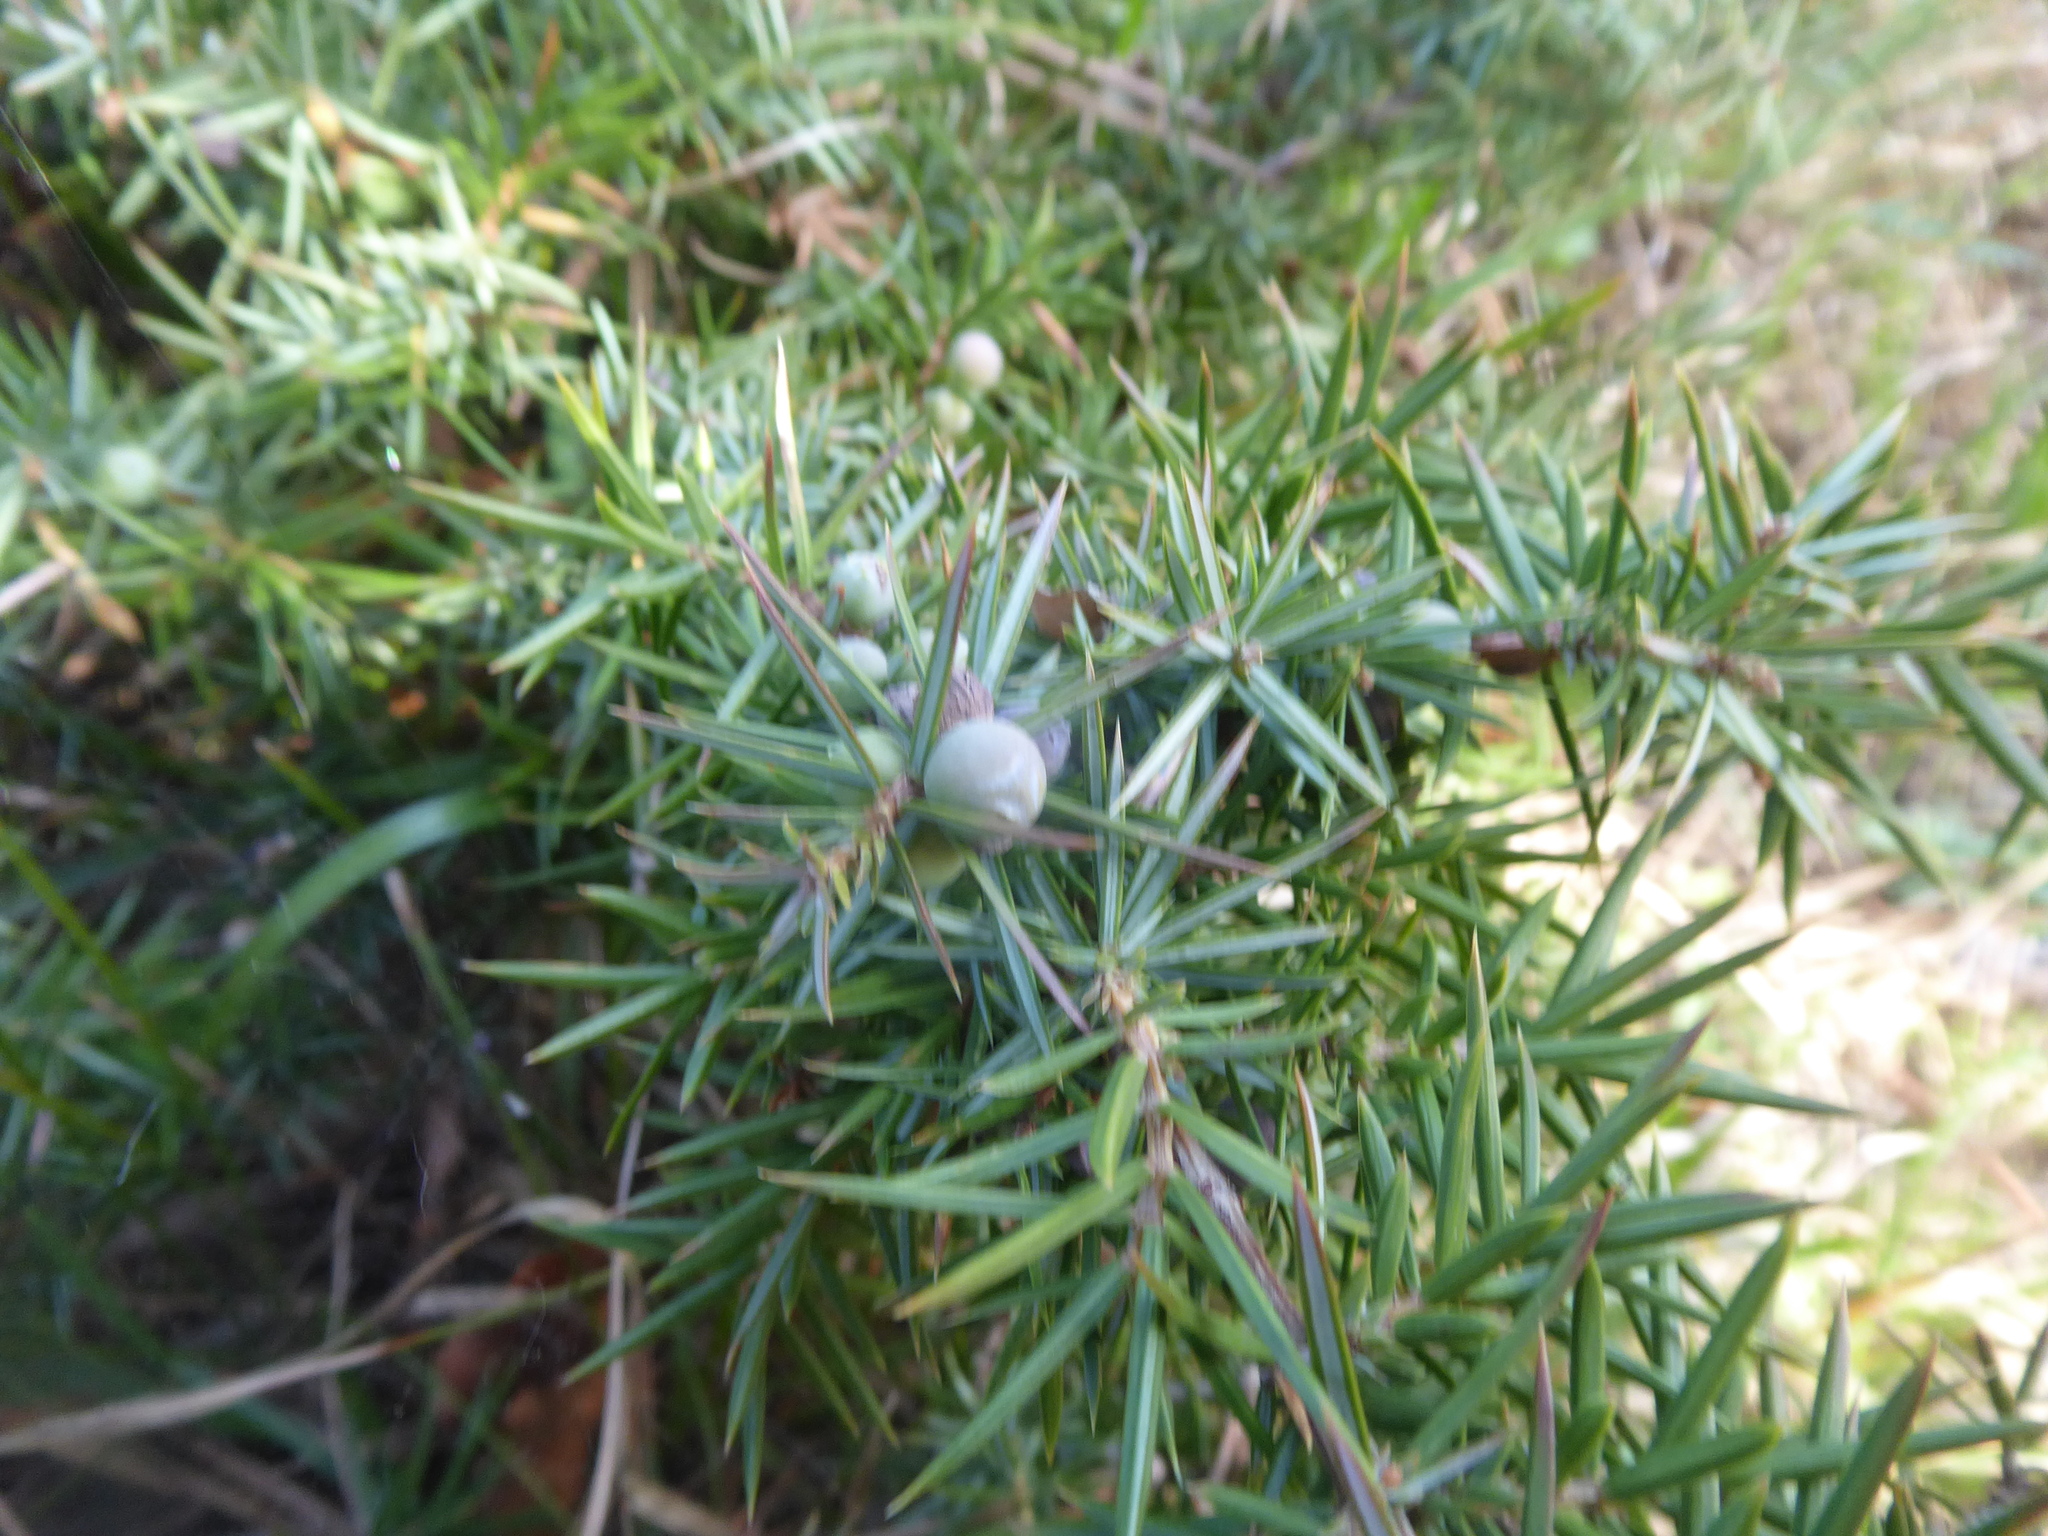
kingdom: Plantae
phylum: Tracheophyta
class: Pinopsida
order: Pinales
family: Cupressaceae
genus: Juniperus
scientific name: Juniperus communis
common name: Common juniper
